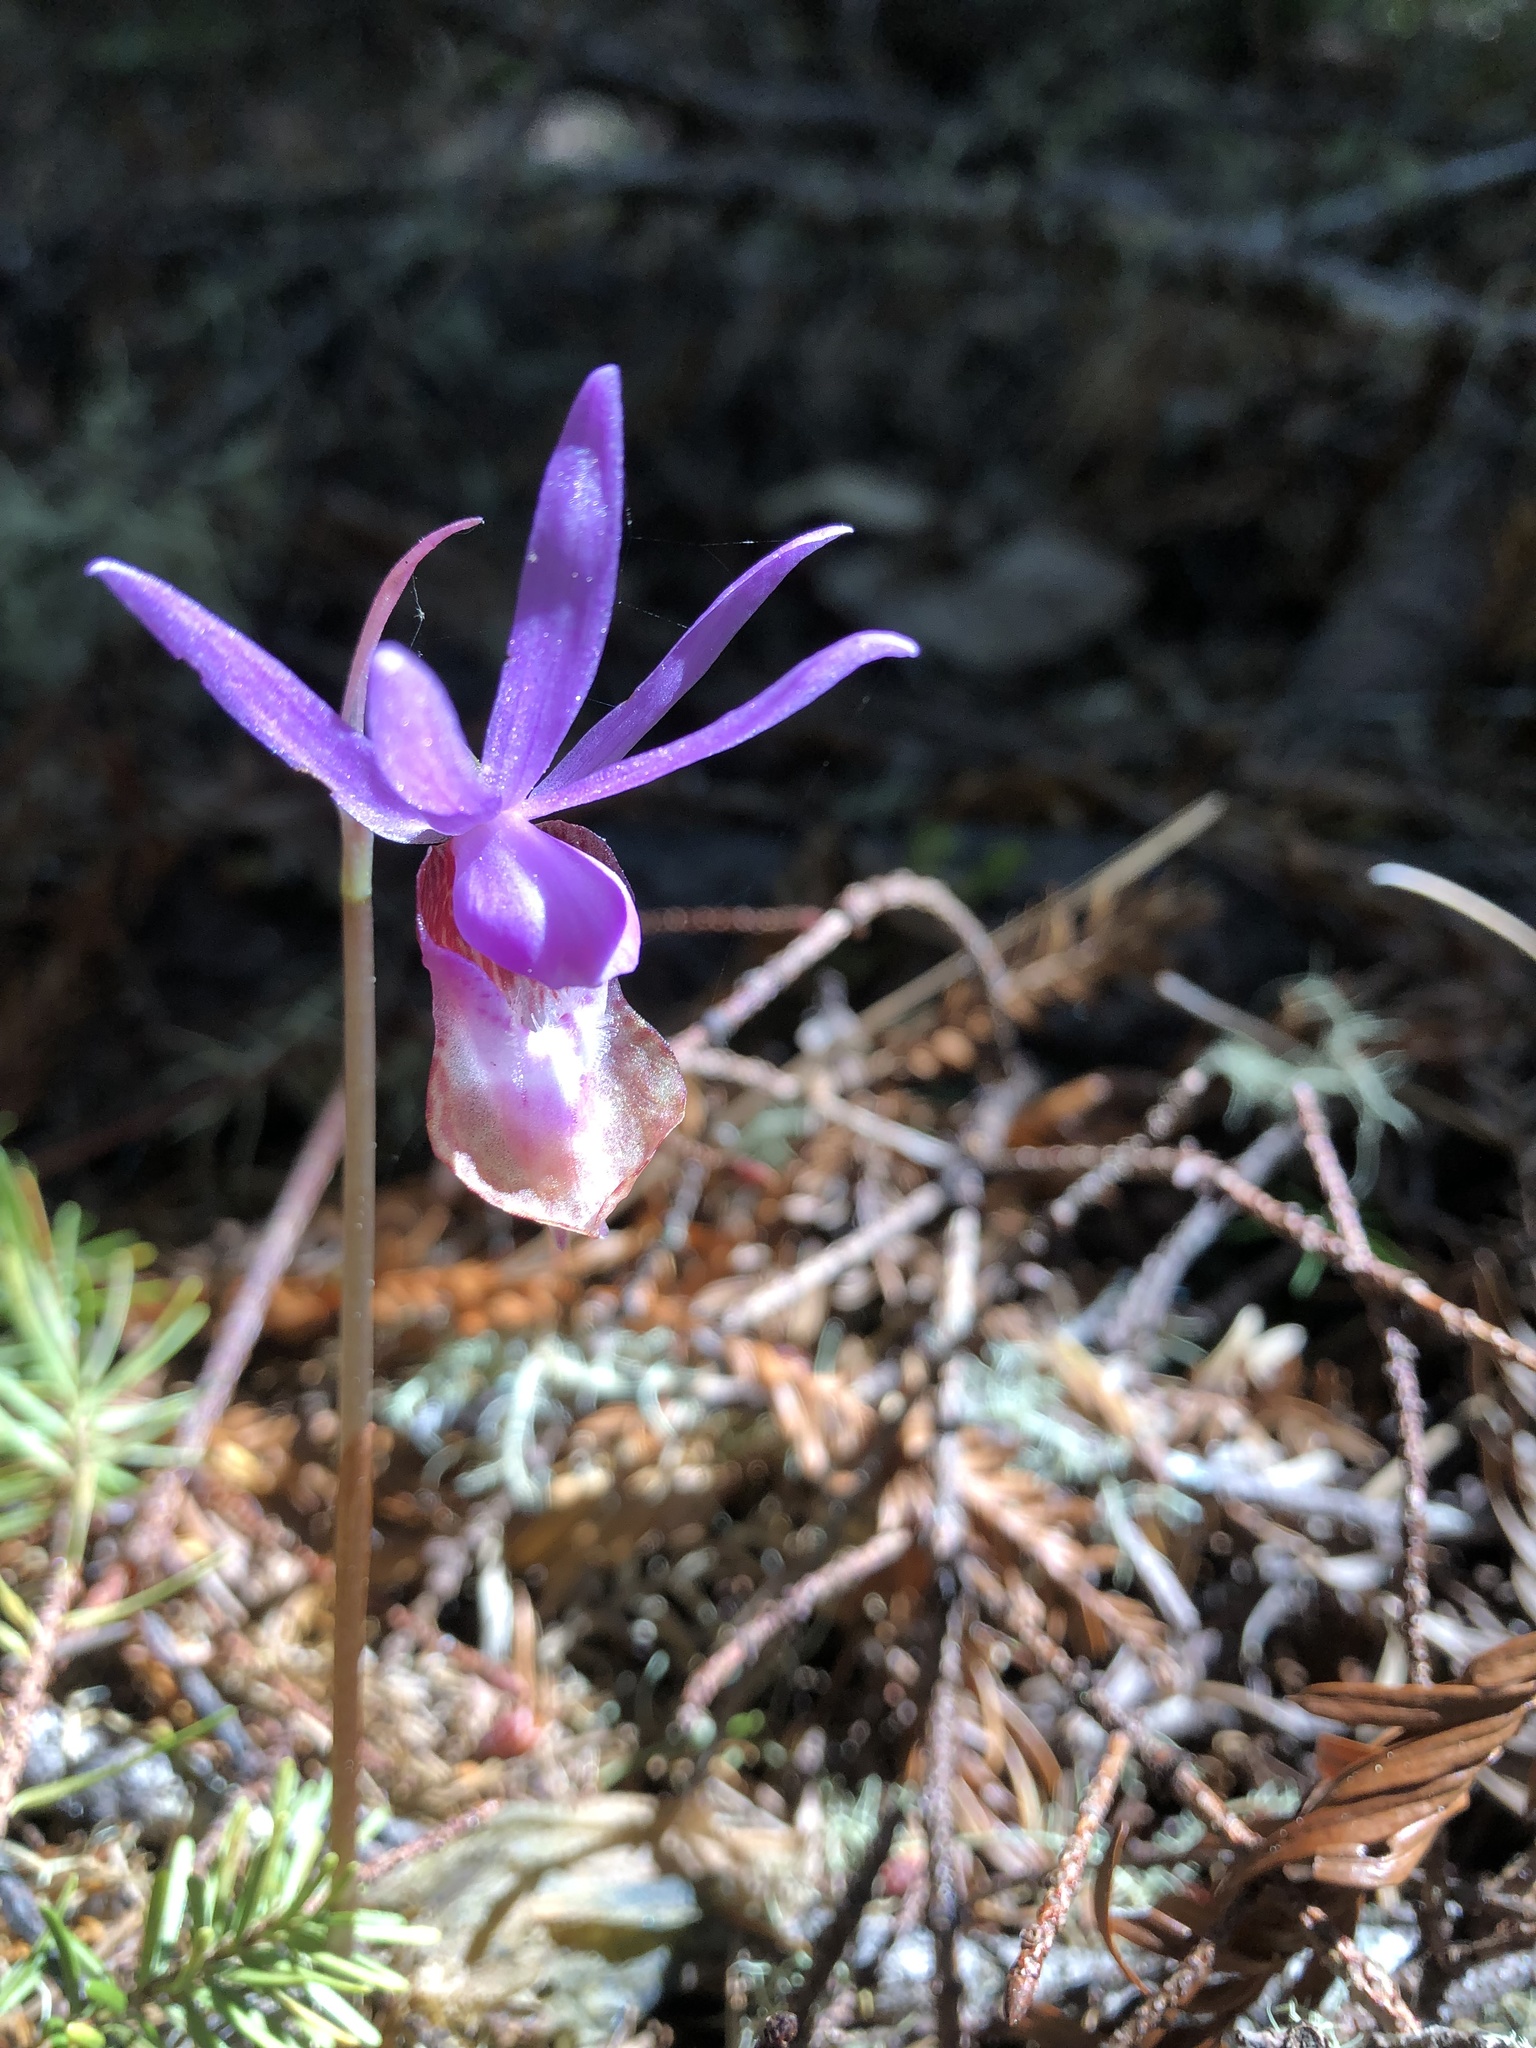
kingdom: Plantae
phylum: Tracheophyta
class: Liliopsida
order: Asparagales
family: Orchidaceae
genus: Calypso
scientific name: Calypso bulbosa
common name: Calypso
